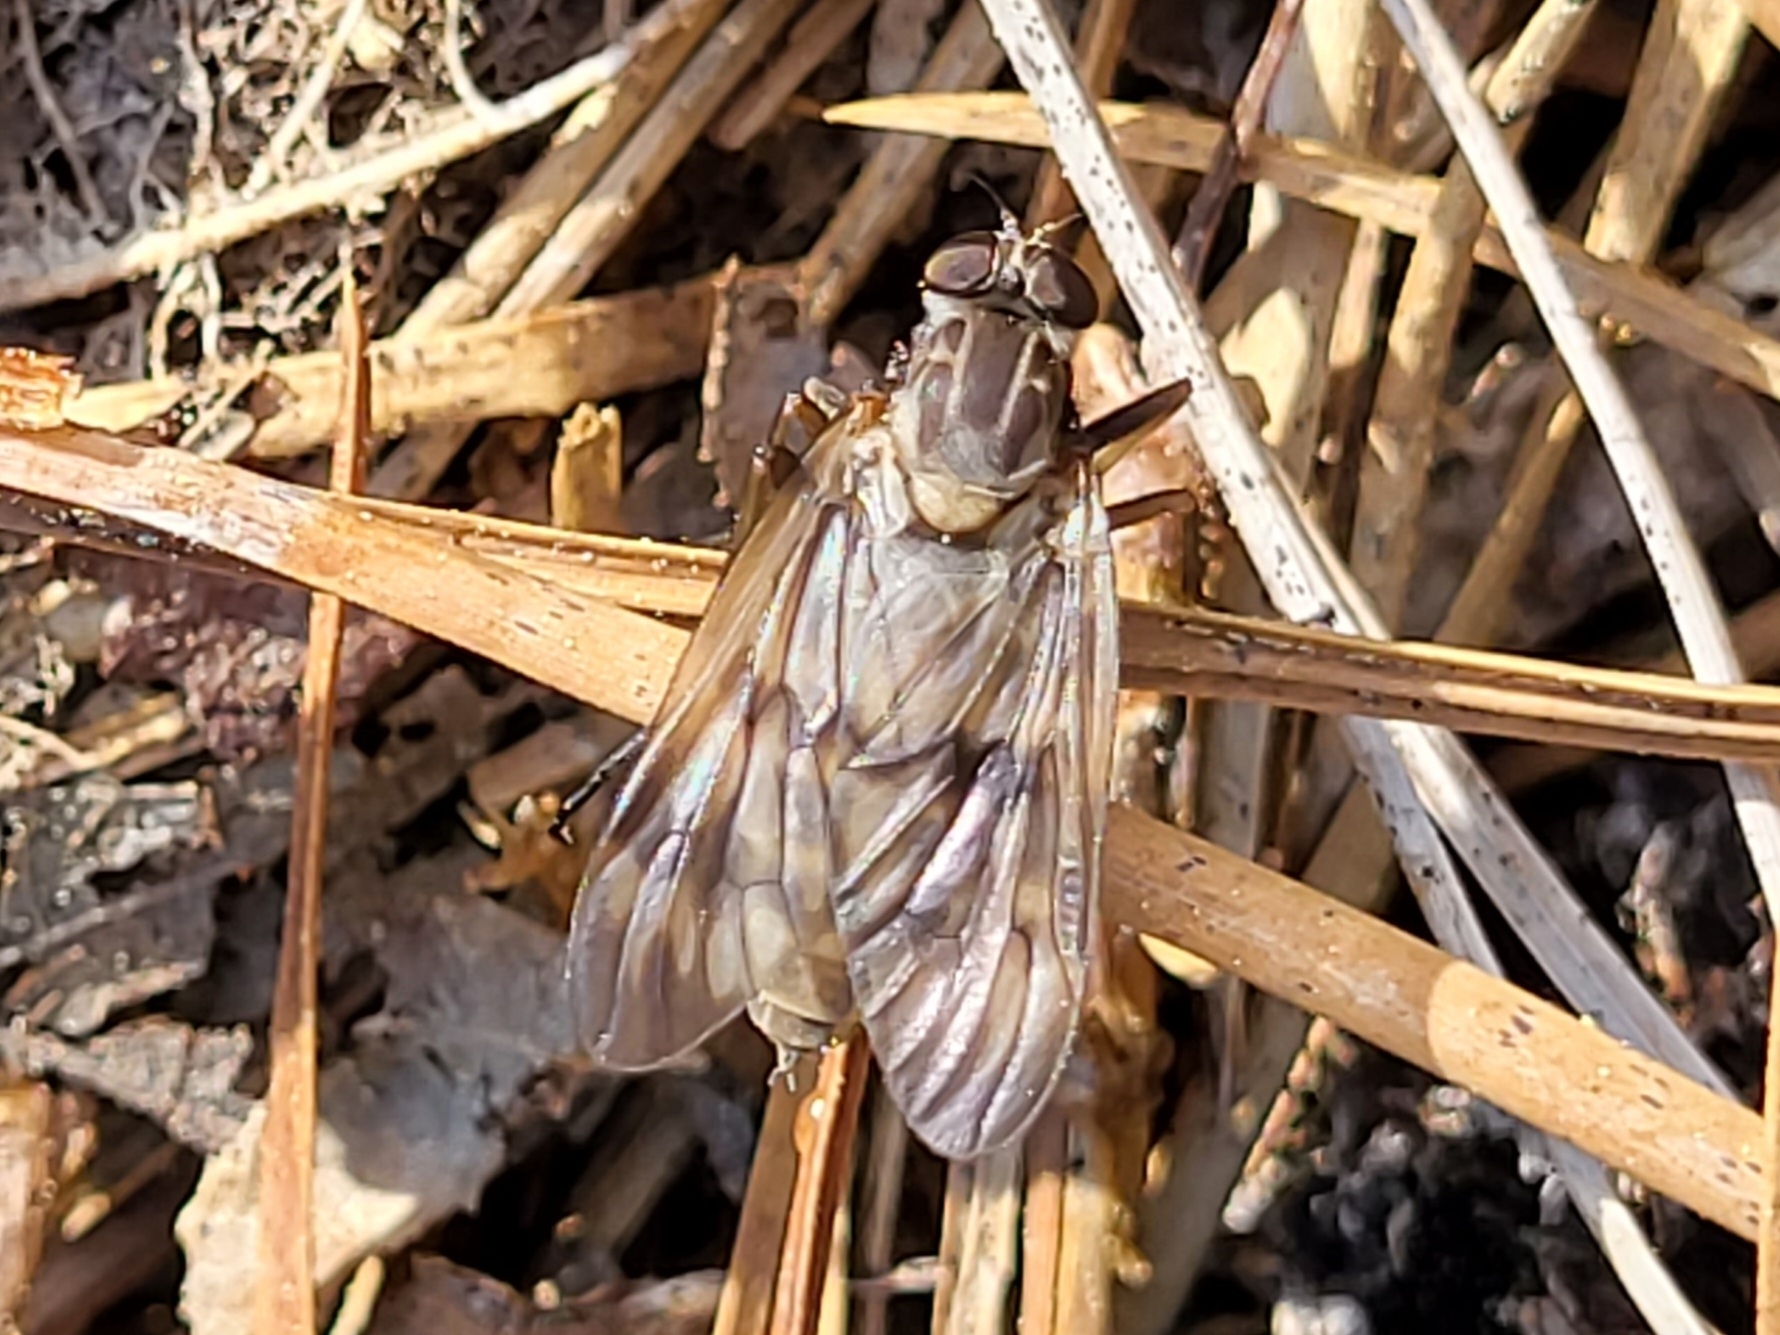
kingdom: Animalia
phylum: Arthropoda
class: Insecta
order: Diptera
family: Rhagionidae
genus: Rhagio
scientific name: Rhagio mystaceus
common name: Common snipe fly
